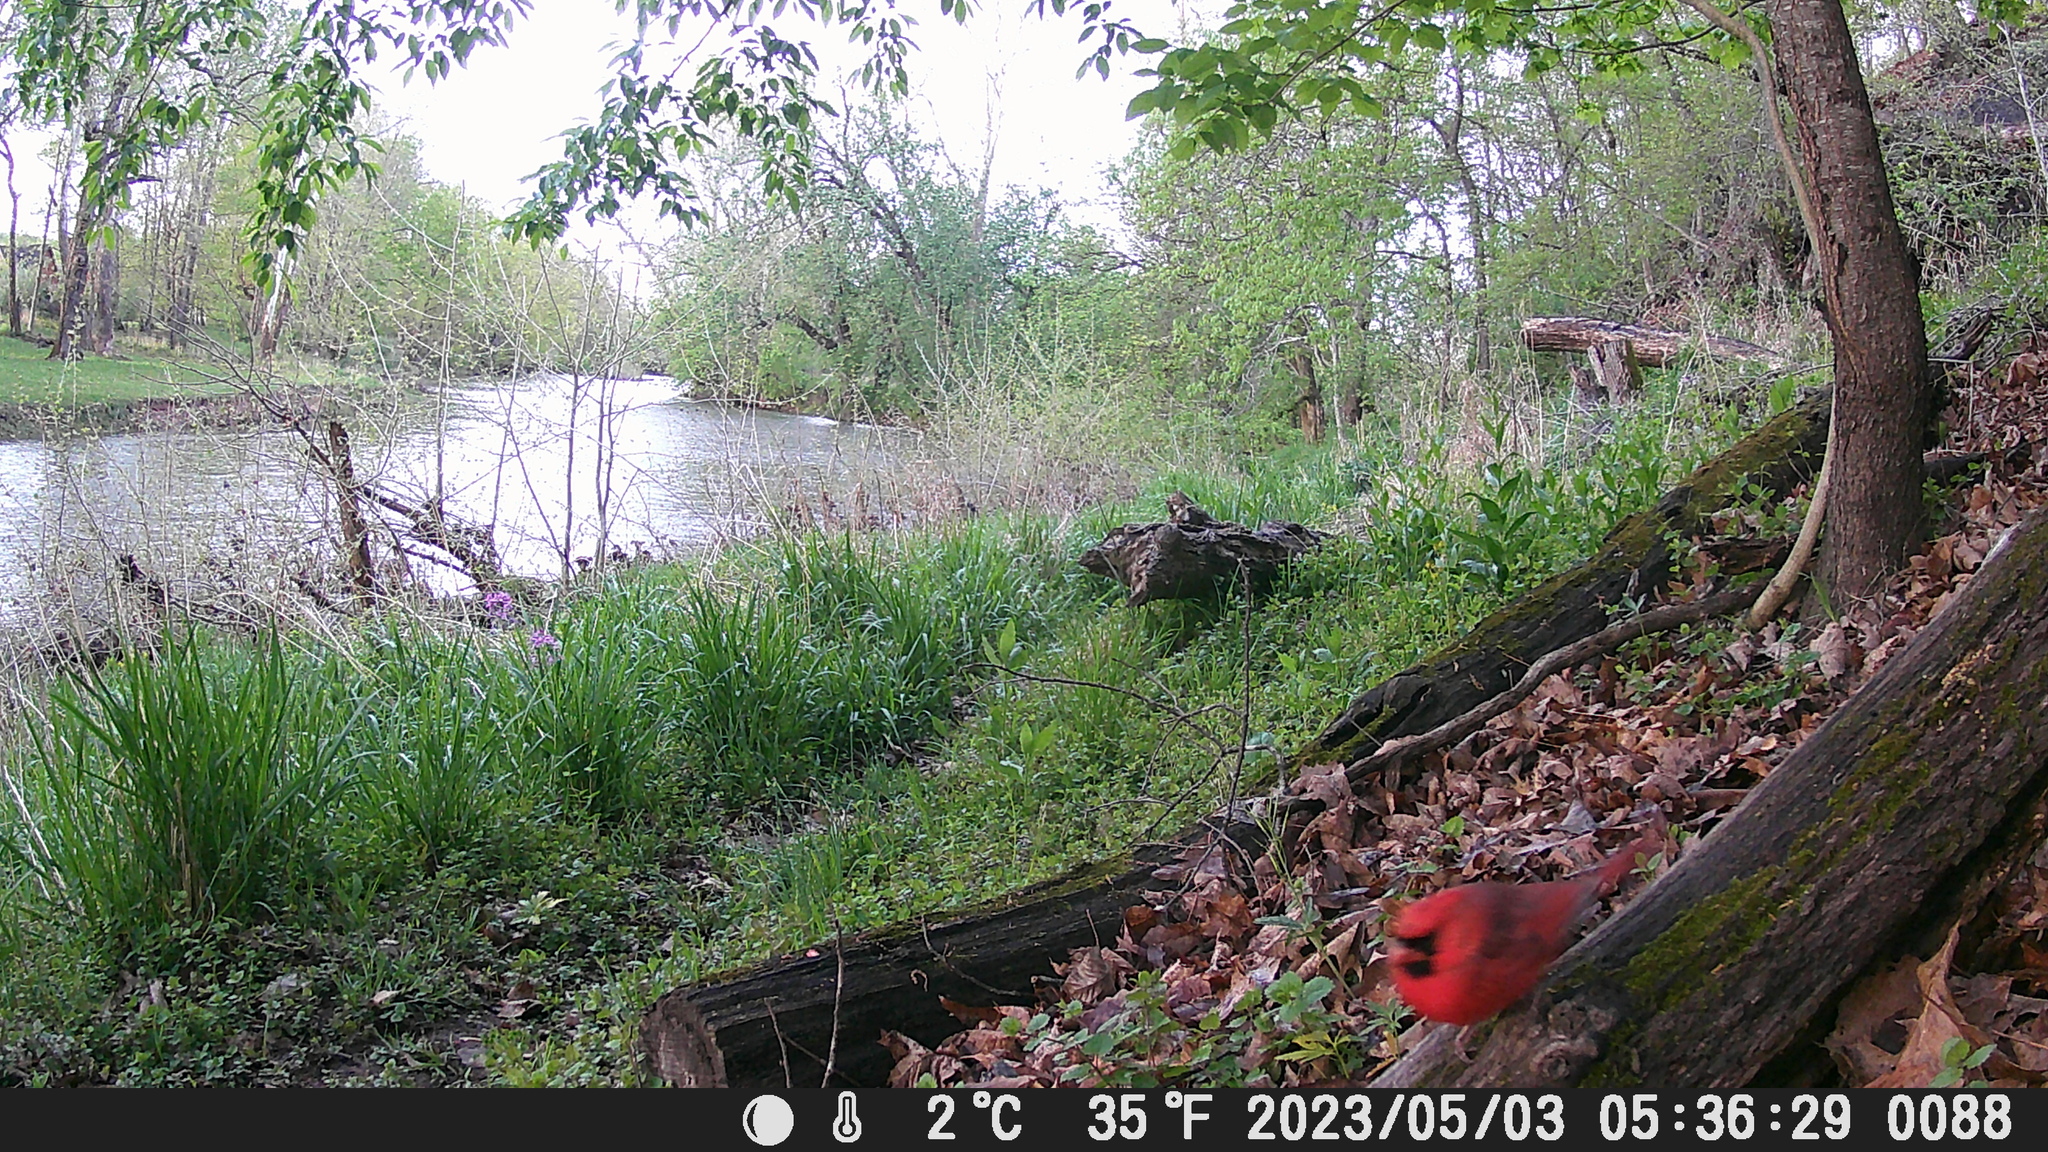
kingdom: Animalia
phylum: Chordata
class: Aves
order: Passeriformes
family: Cardinalidae
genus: Cardinalis
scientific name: Cardinalis cardinalis
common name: Northern cardinal
